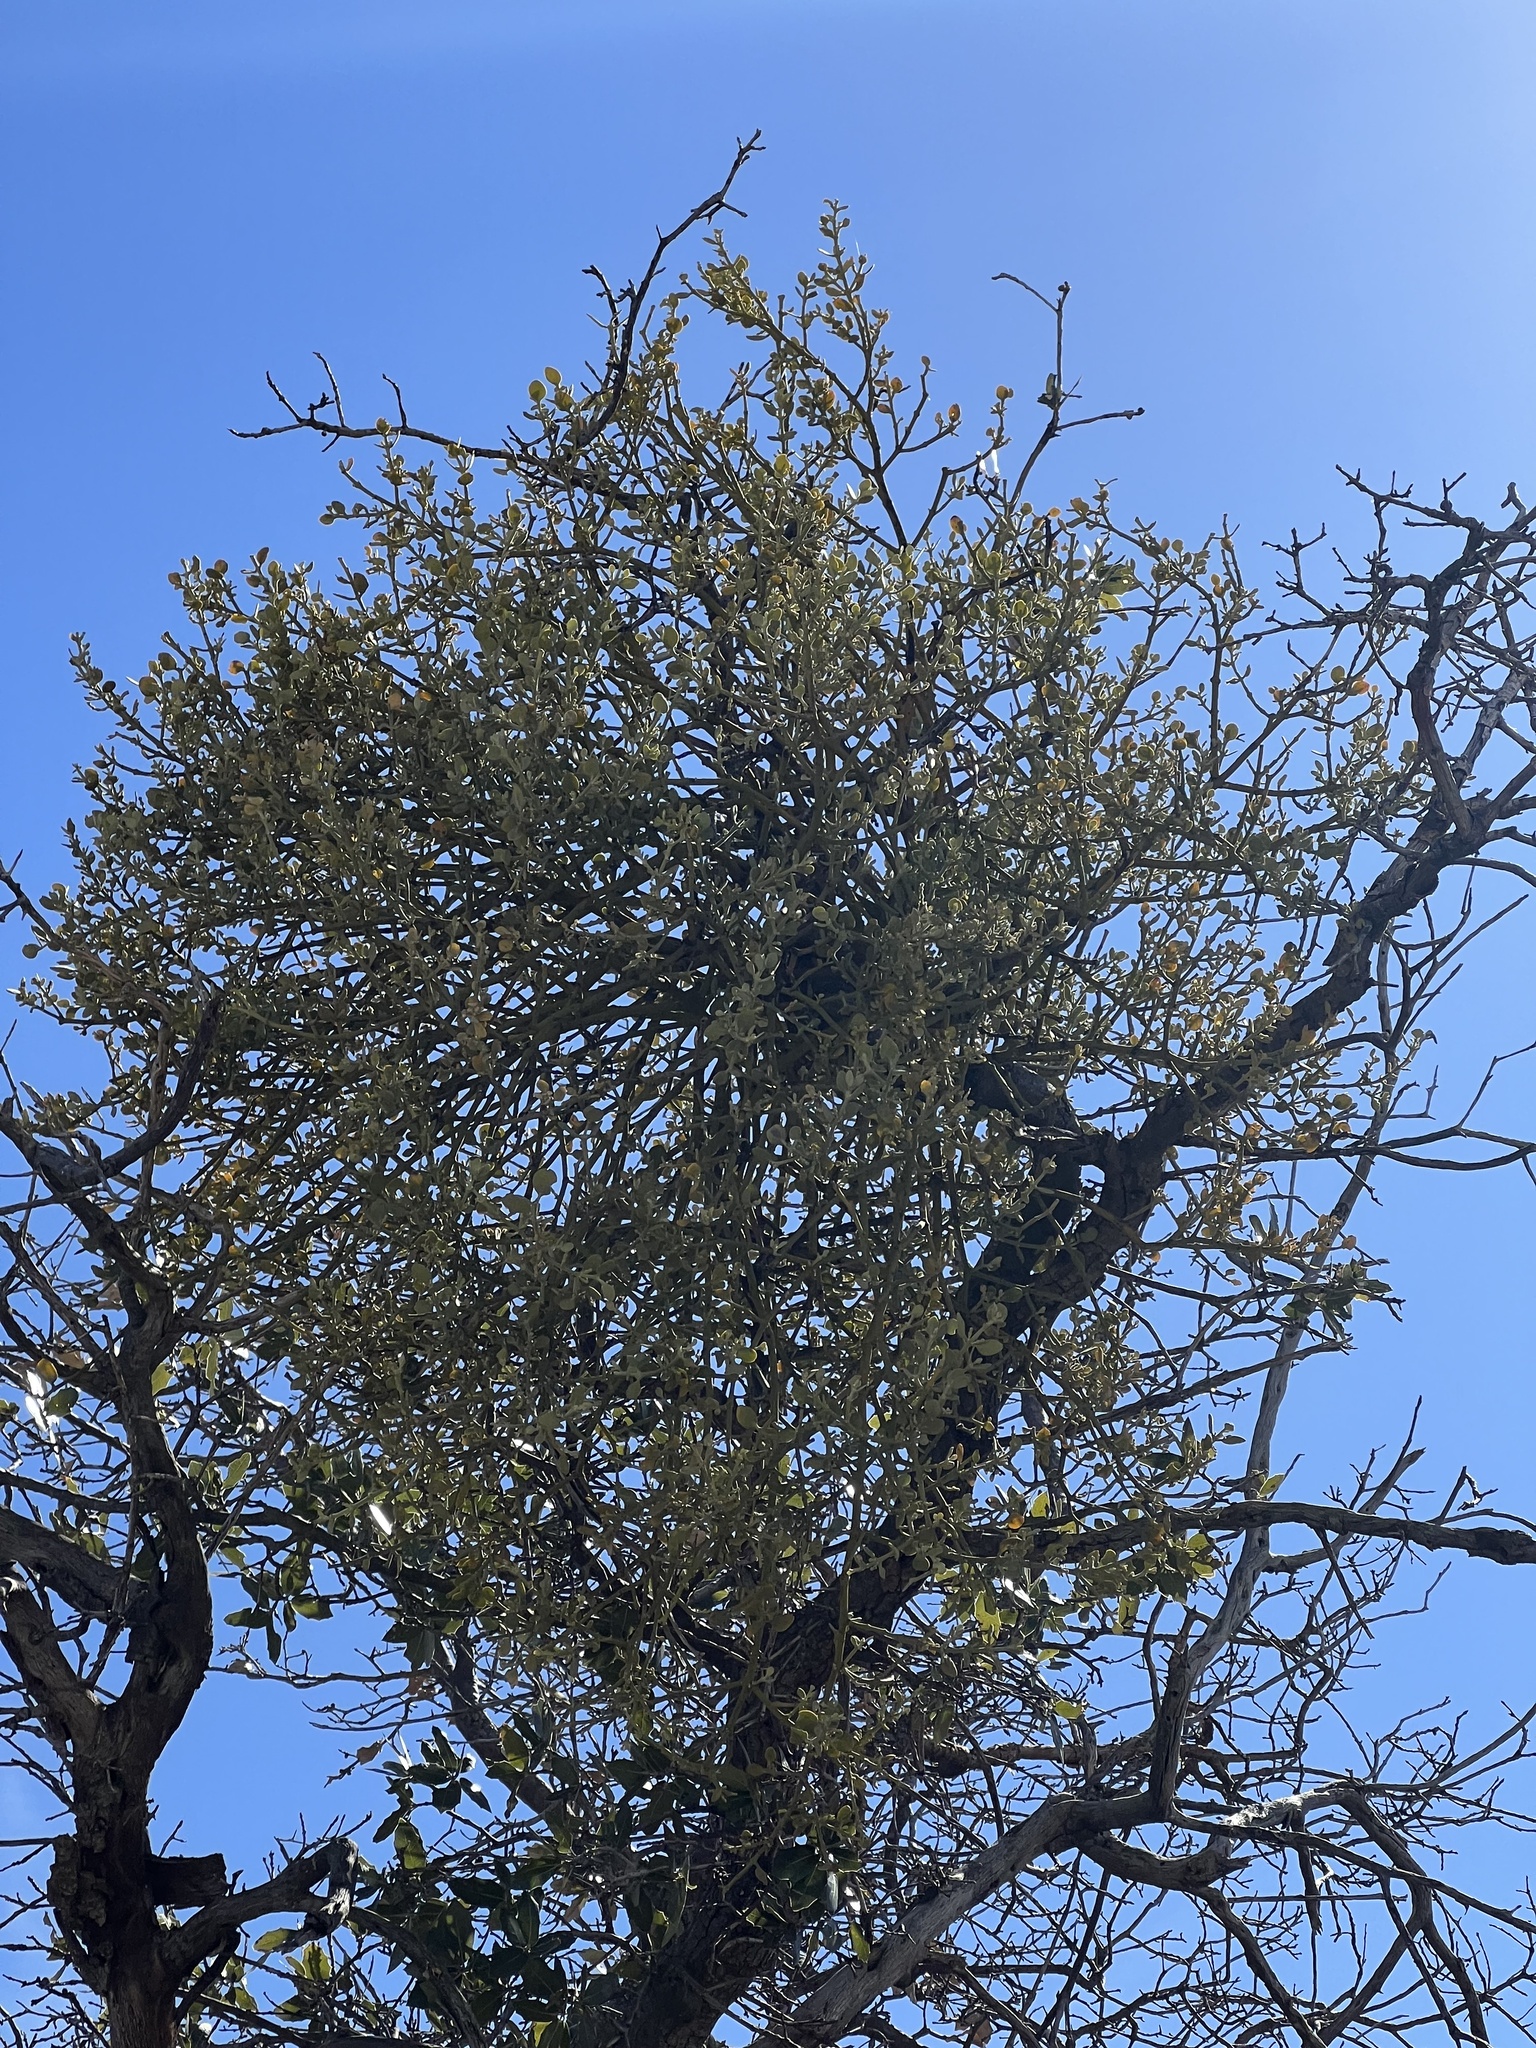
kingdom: Plantae
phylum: Tracheophyta
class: Magnoliopsida
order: Santalales
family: Viscaceae
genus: Phoradendron
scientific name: Phoradendron coryae
